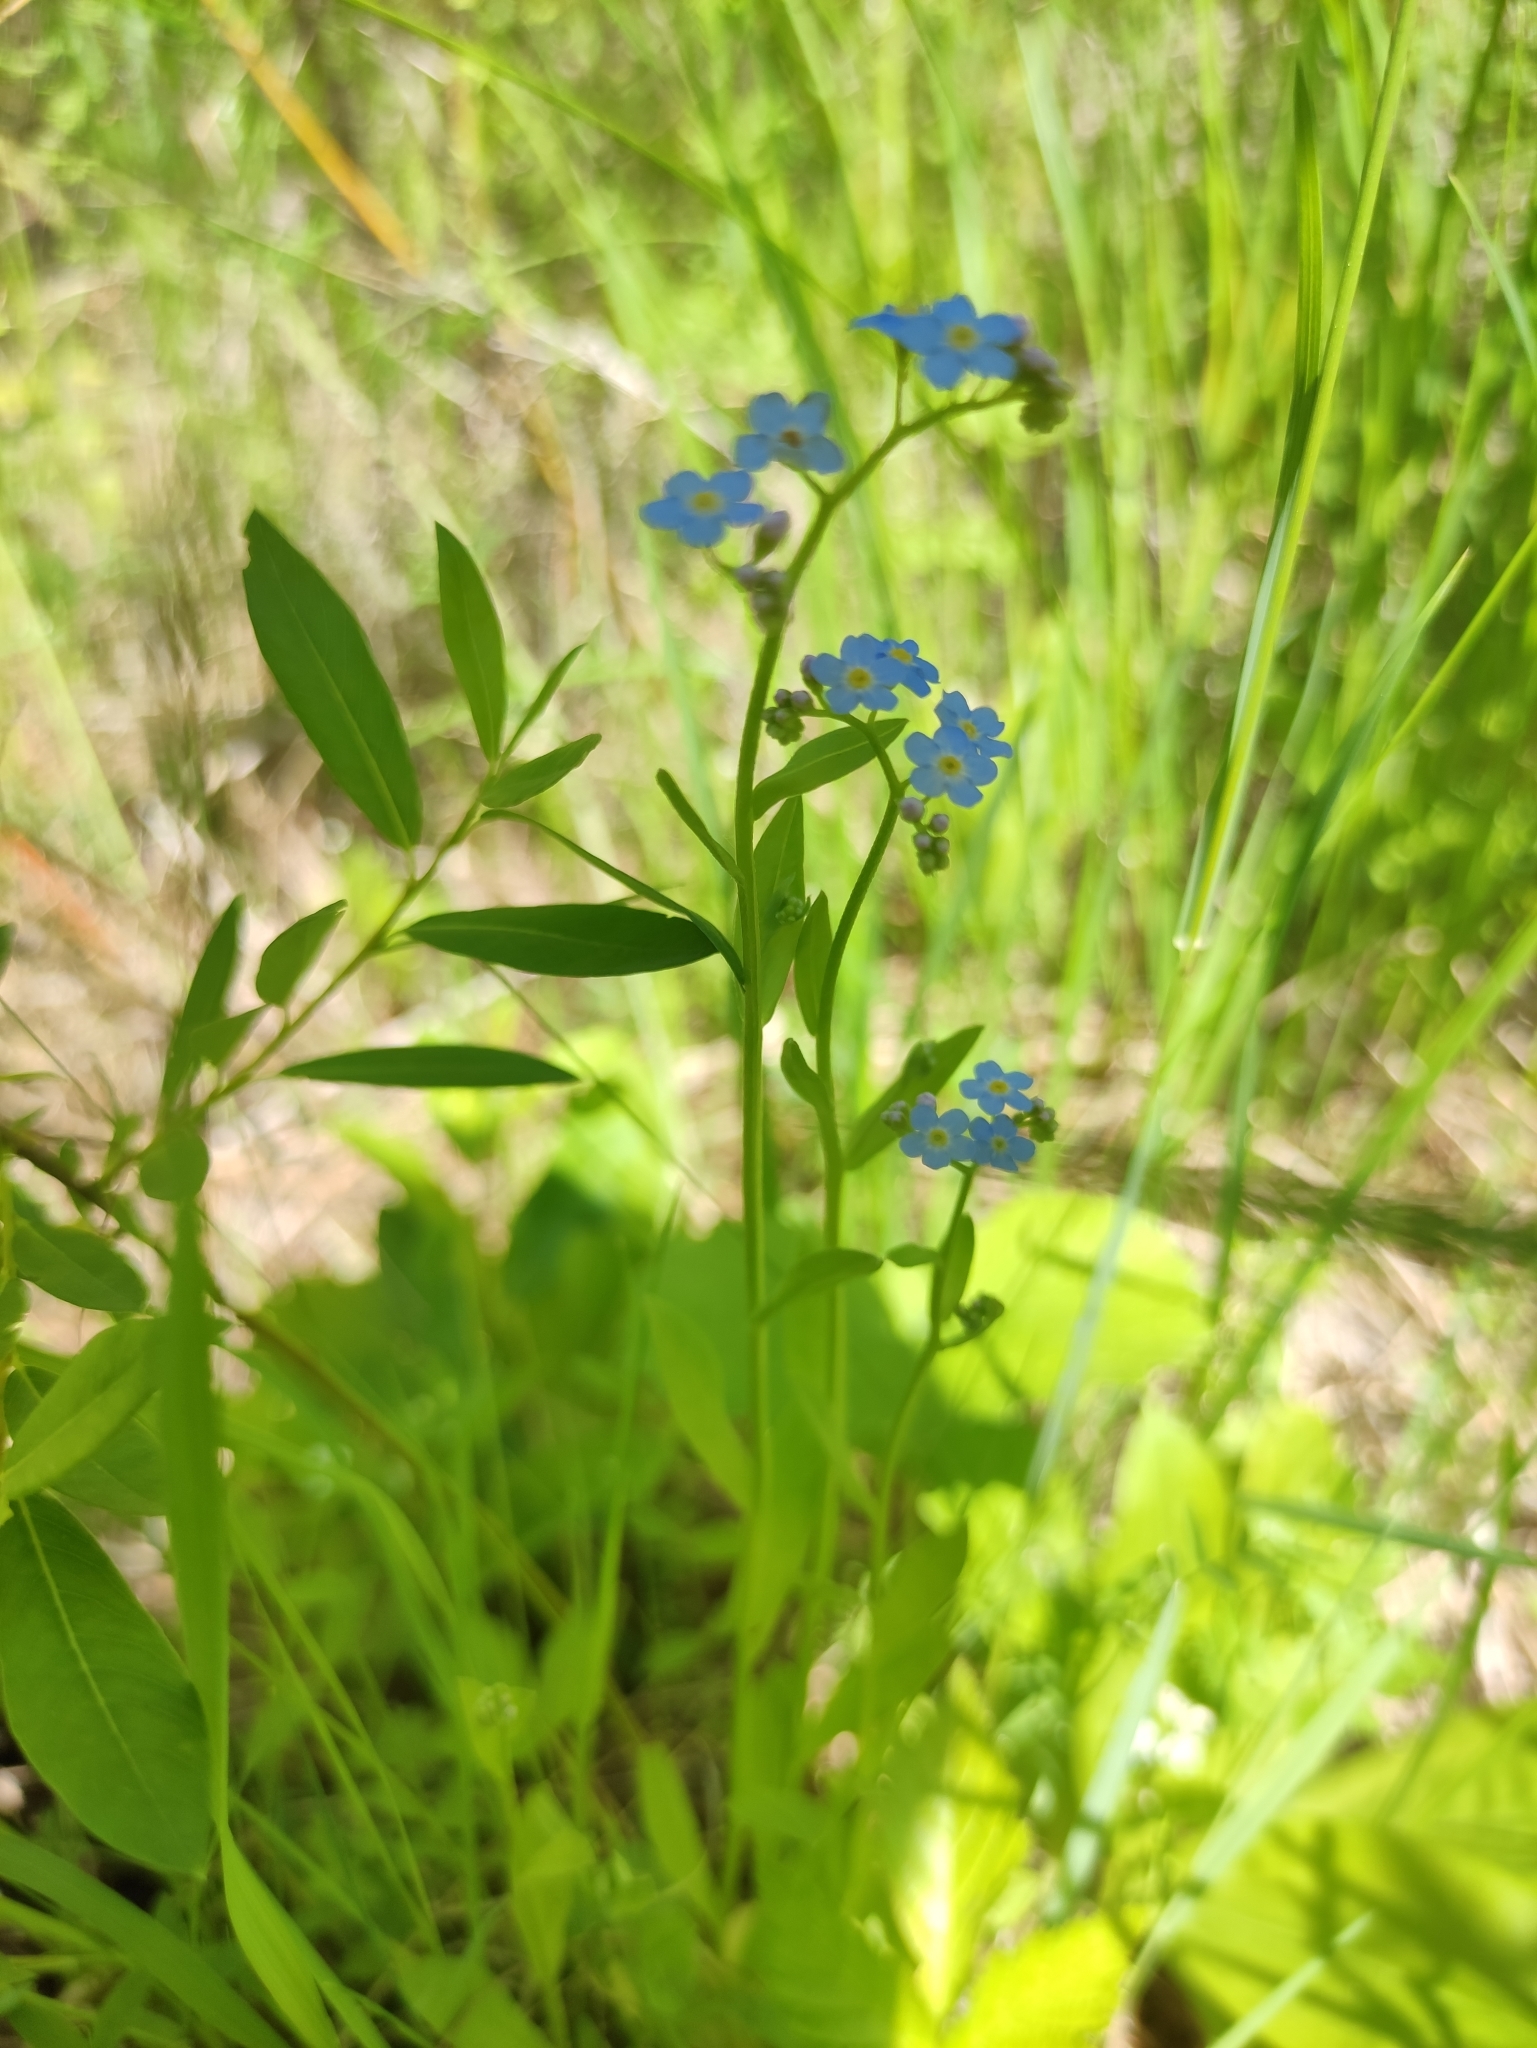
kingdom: Plantae
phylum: Tracheophyta
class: Magnoliopsida
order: Boraginales
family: Boraginaceae
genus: Myosotis
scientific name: Myosotis scorpioides
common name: Water forget-me-not
